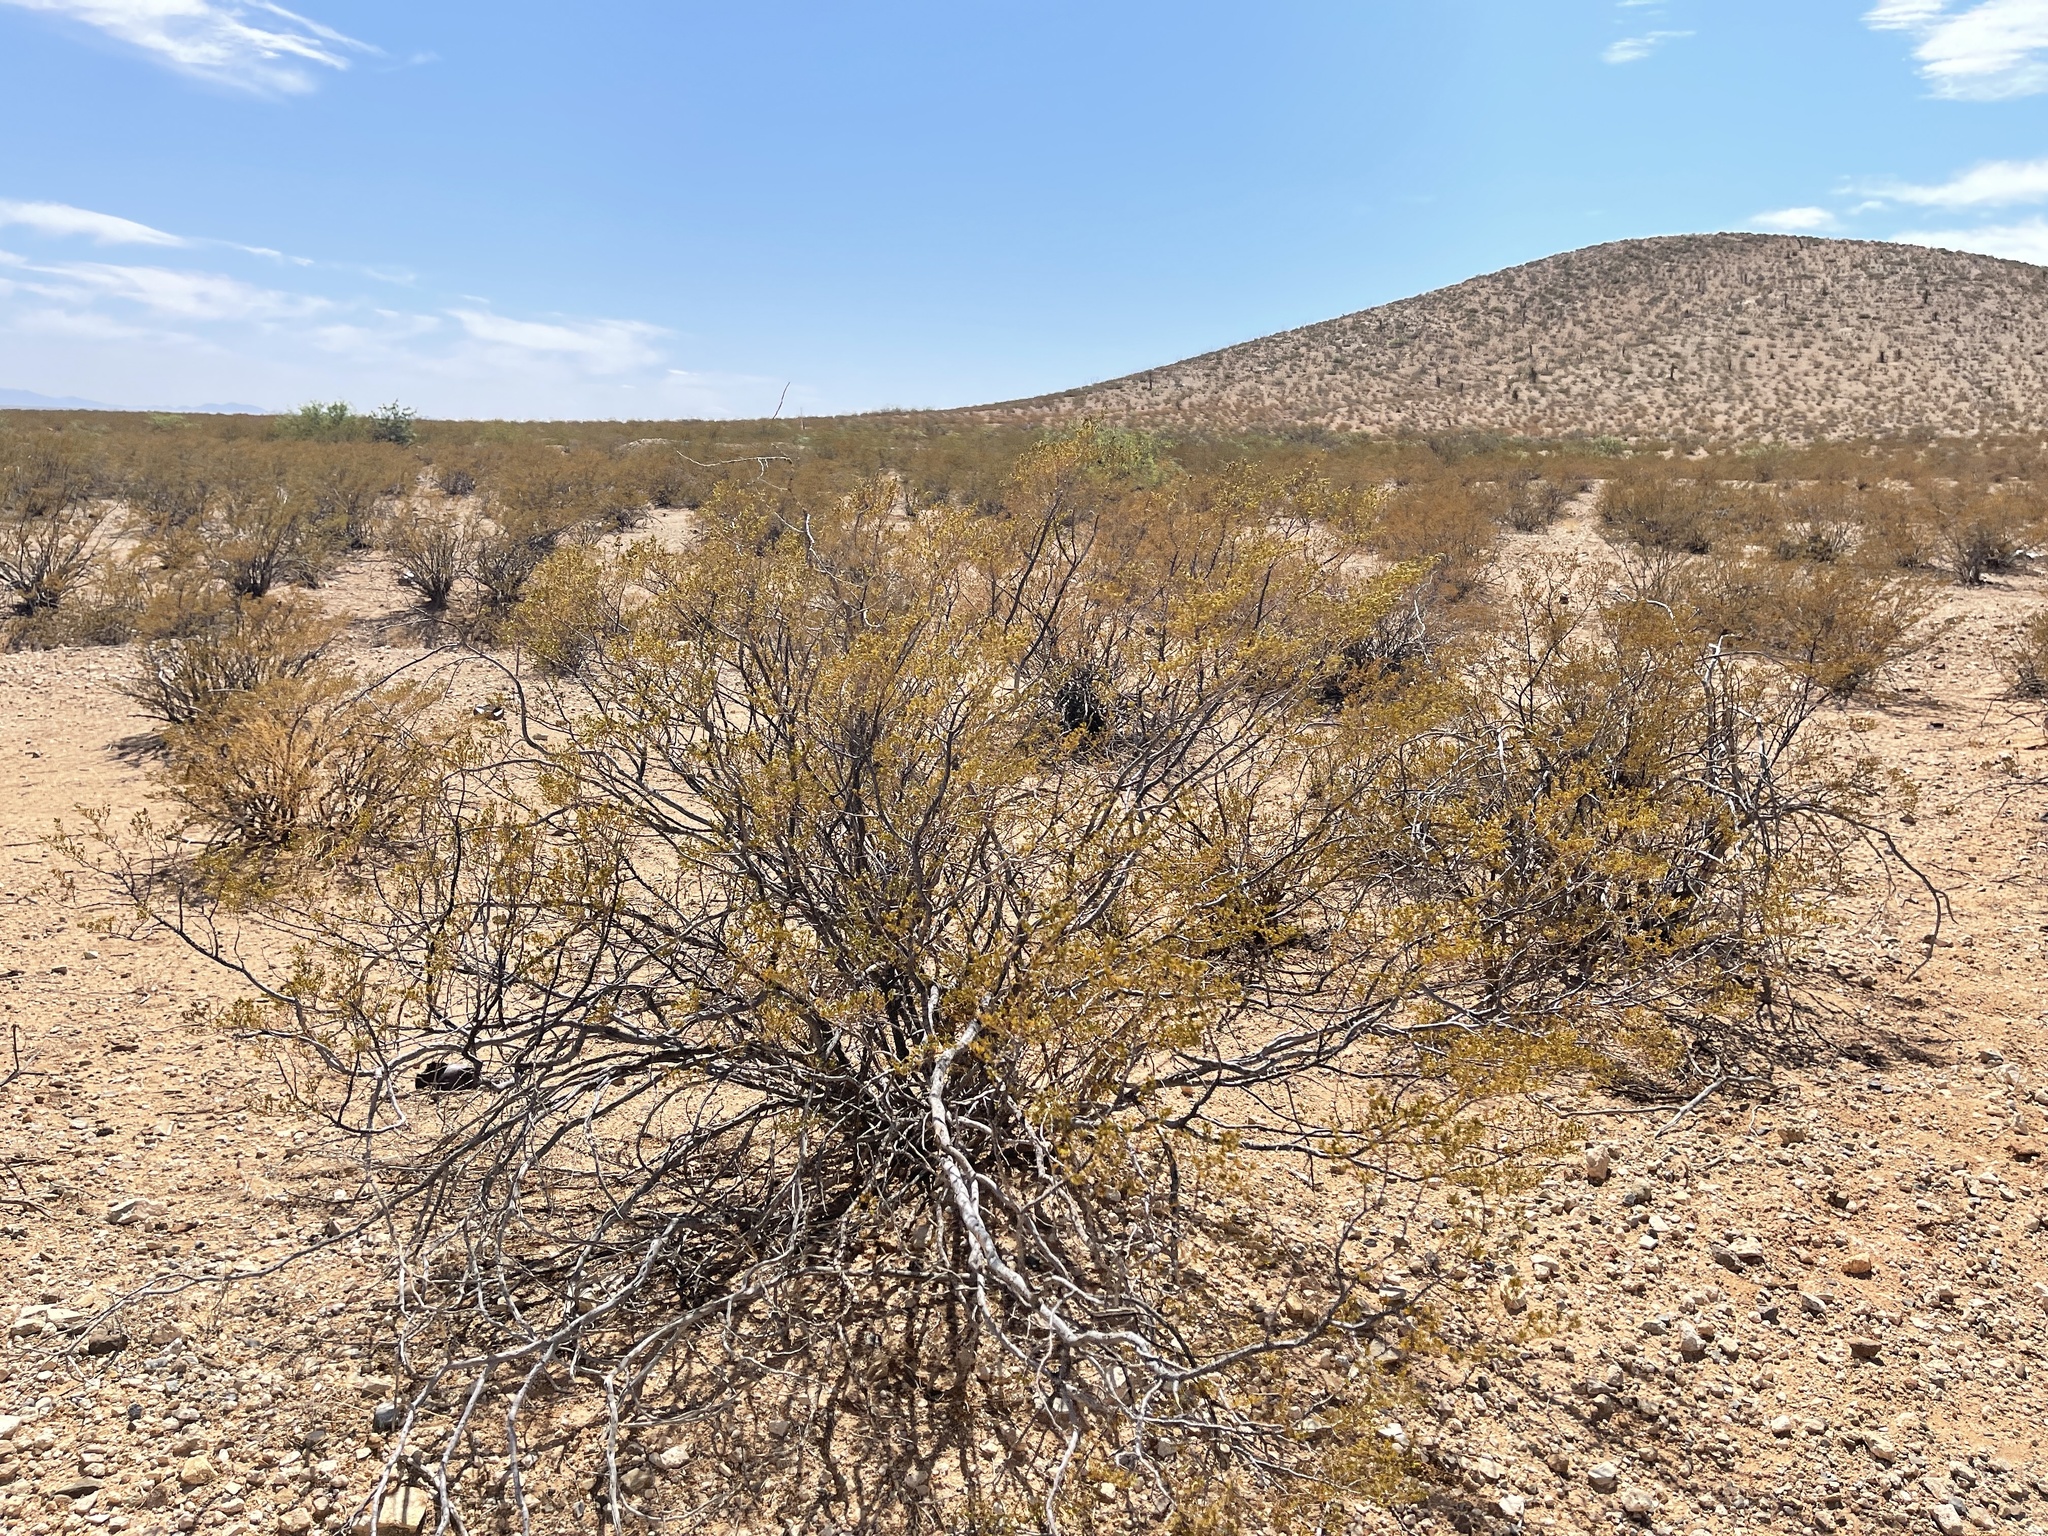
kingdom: Plantae
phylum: Tracheophyta
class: Magnoliopsida
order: Zygophyllales
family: Zygophyllaceae
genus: Larrea
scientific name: Larrea tridentata
